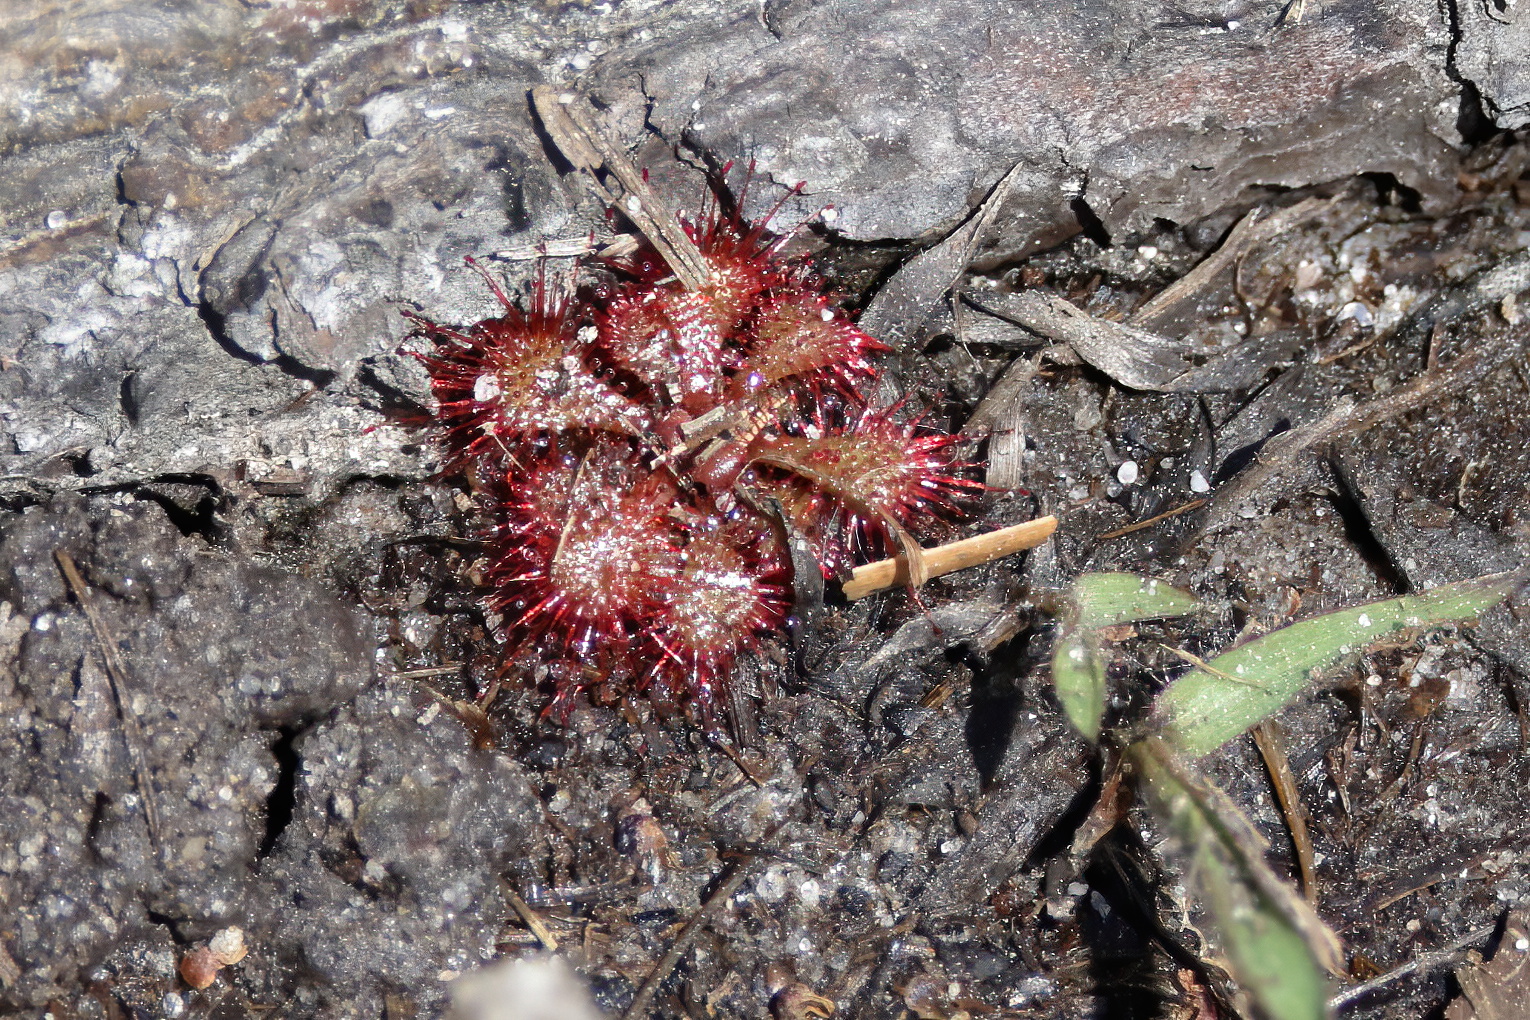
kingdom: Plantae
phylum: Tracheophyta
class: Magnoliopsida
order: Caryophyllales
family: Droseraceae
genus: Drosera
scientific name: Drosera brevifolia
